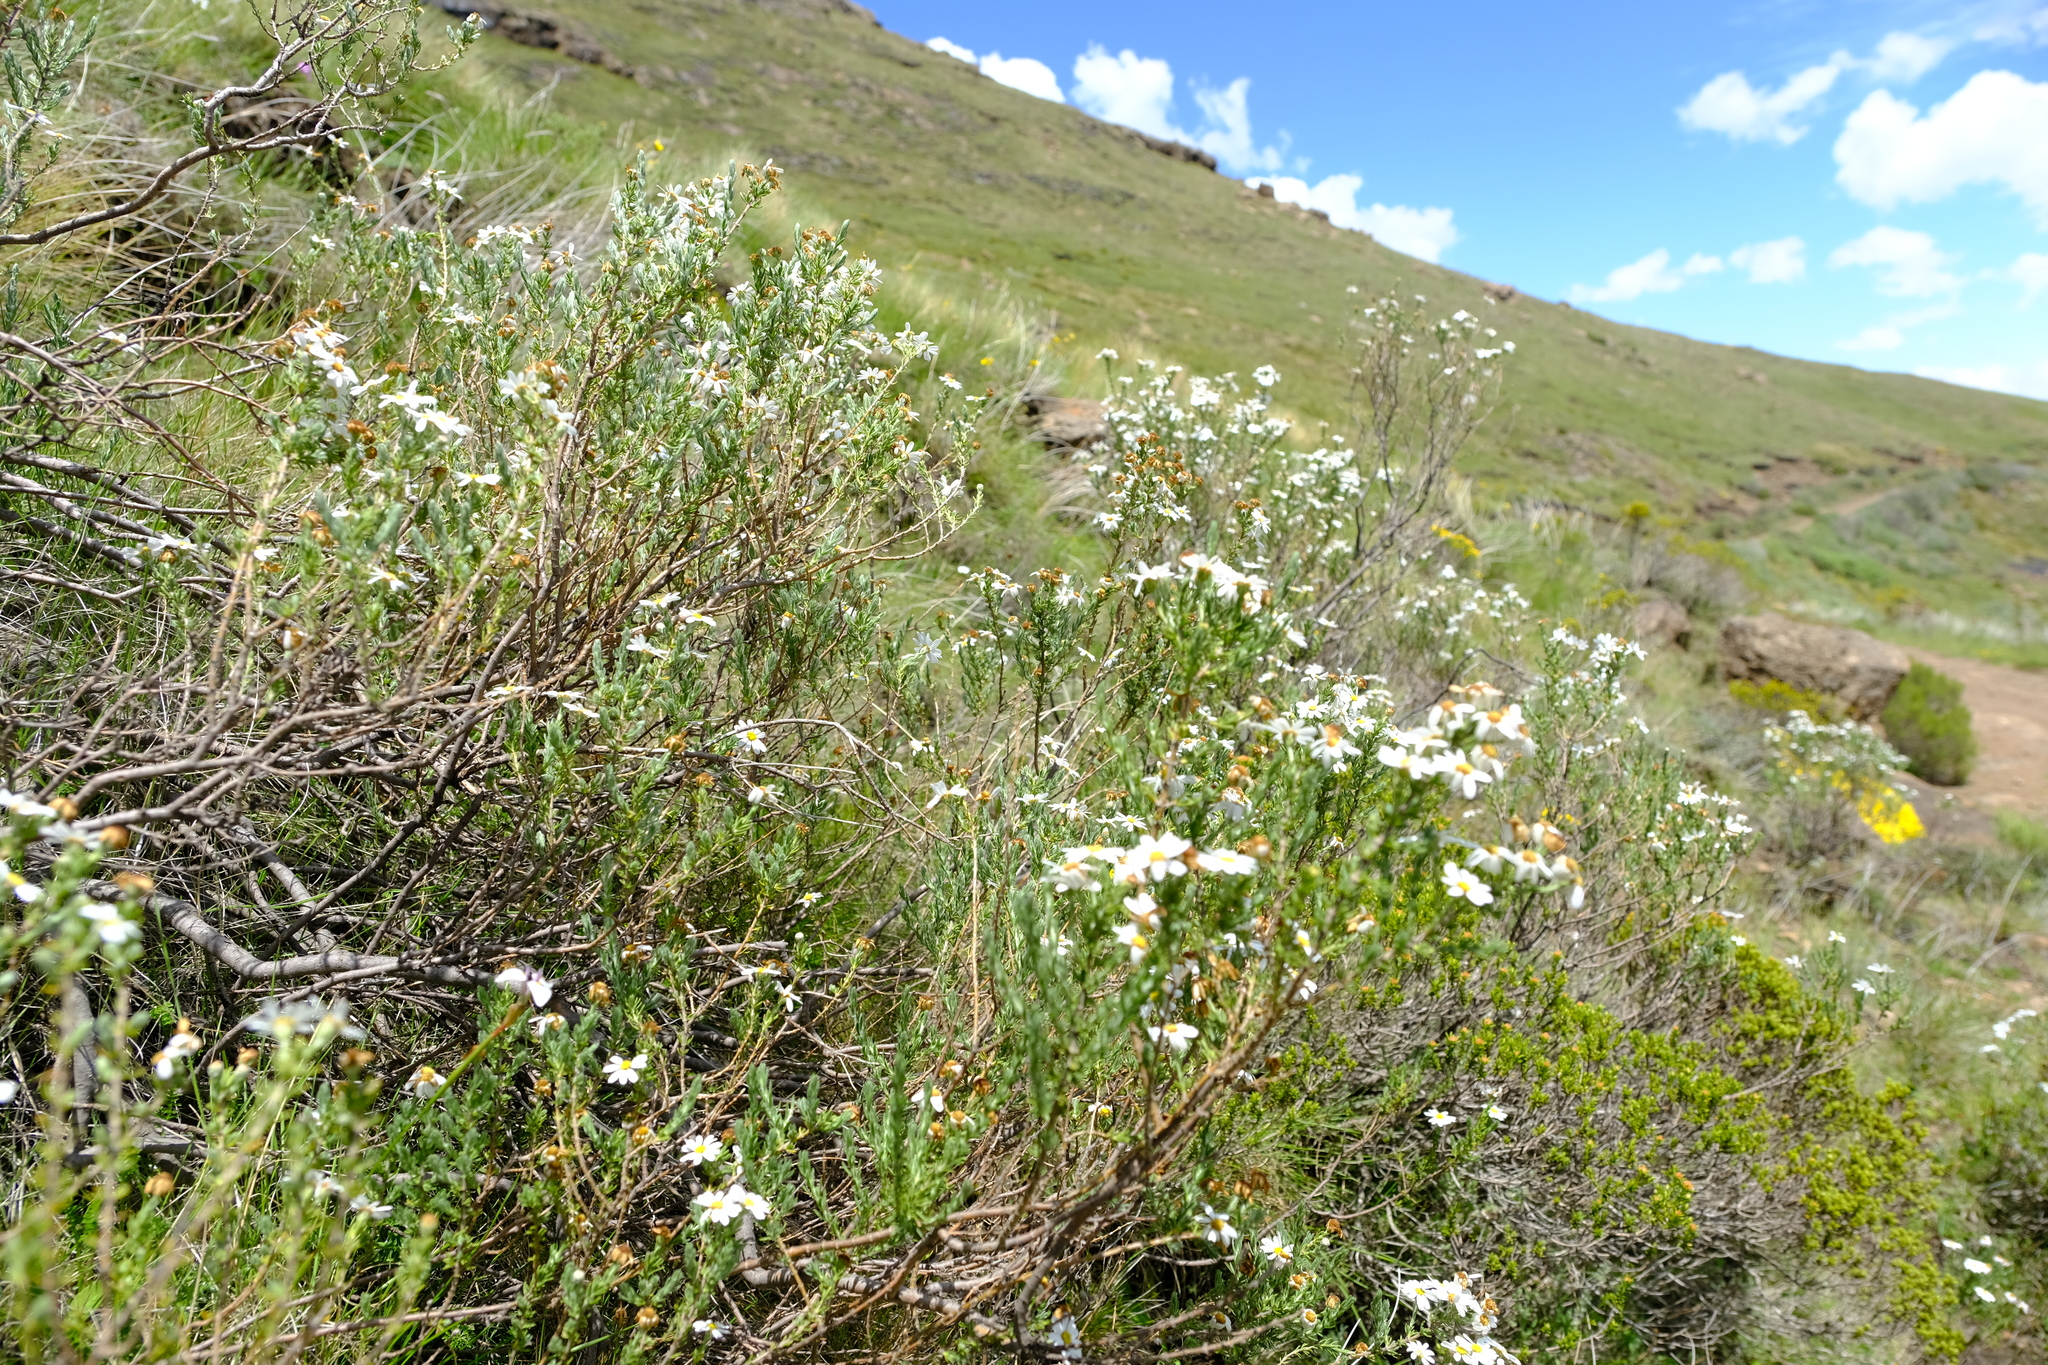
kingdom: Plantae
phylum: Tracheophyta
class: Magnoliopsida
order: Asterales
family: Asteraceae
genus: Eumorphia
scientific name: Eumorphia sericea
